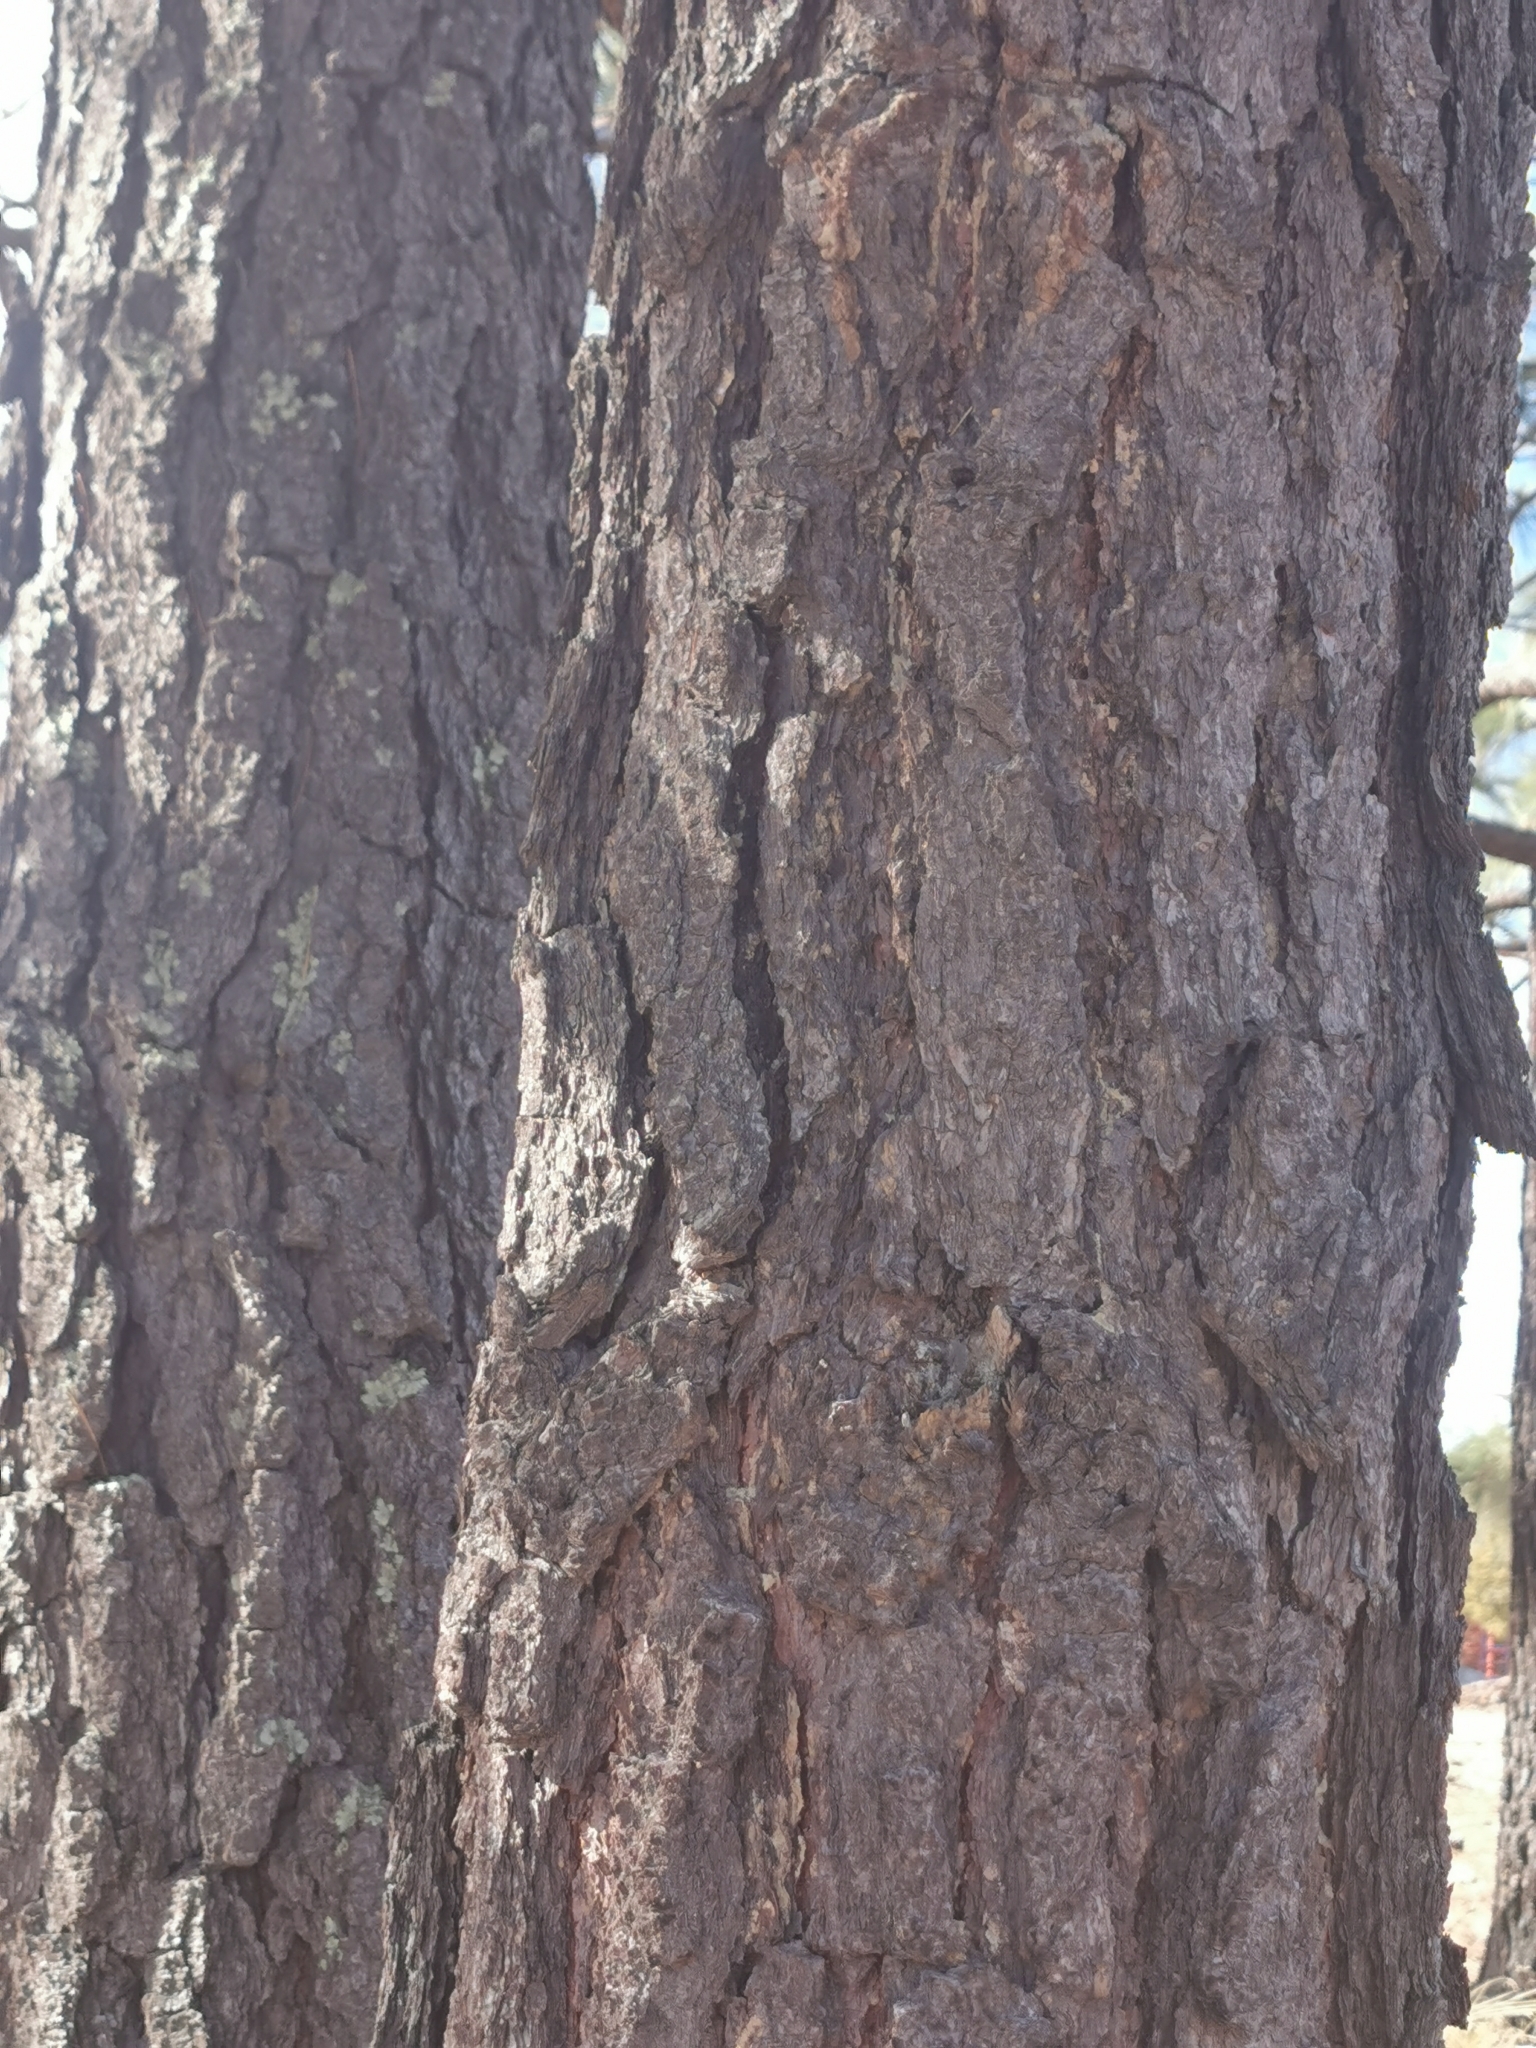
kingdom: Plantae
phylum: Tracheophyta
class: Pinopsida
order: Pinales
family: Pinaceae
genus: Pinus
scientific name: Pinus leiophylla
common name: Chihuahua pine
